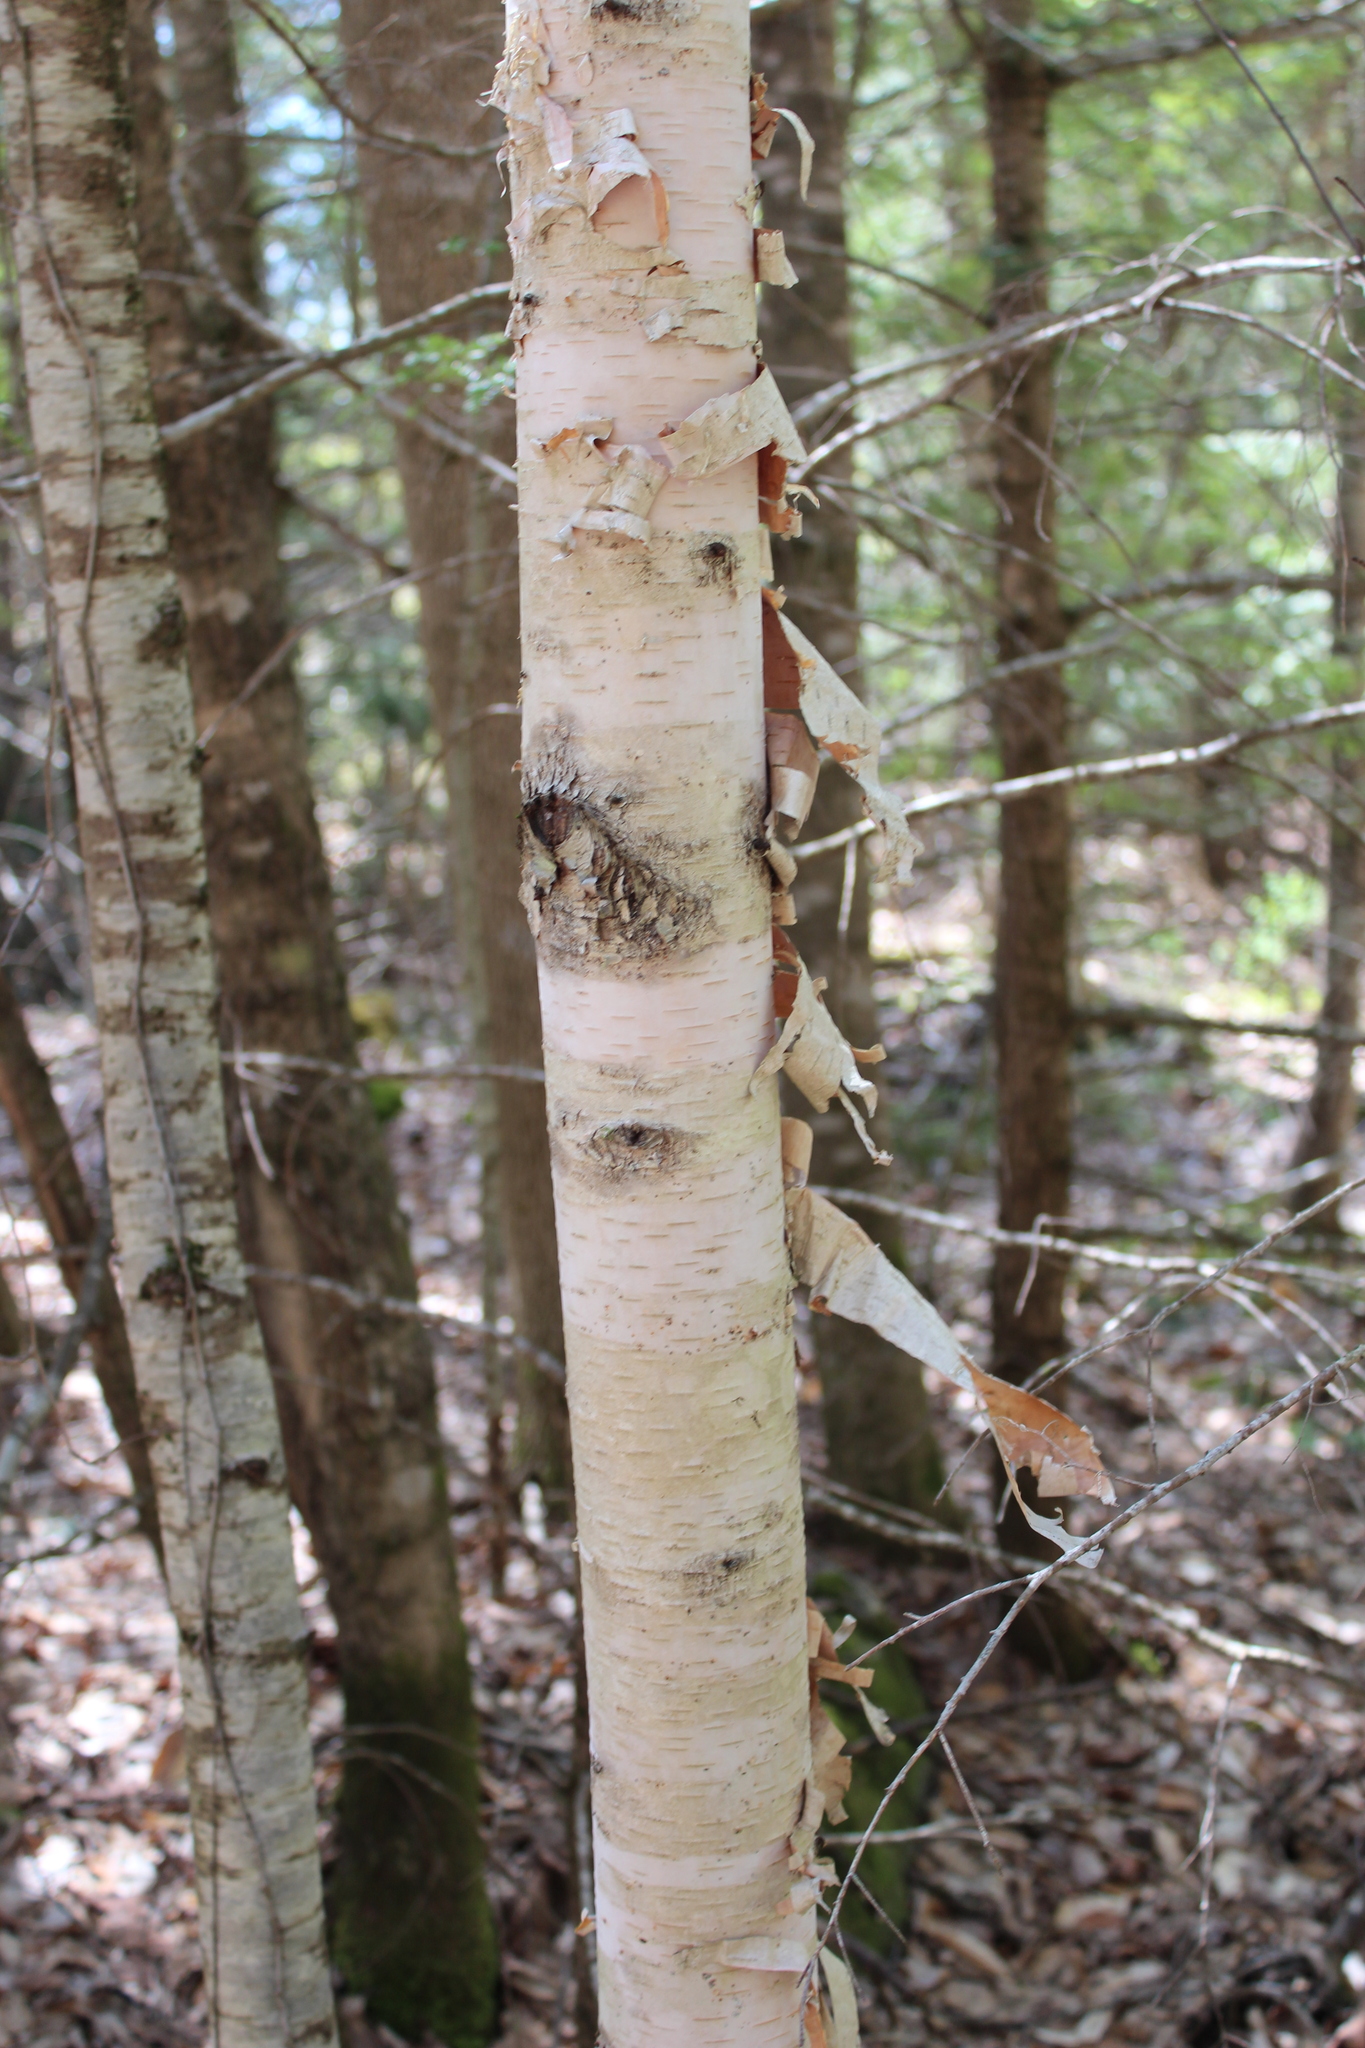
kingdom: Plantae
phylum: Tracheophyta
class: Magnoliopsida
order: Fagales
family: Betulaceae
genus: Betula
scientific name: Betula papyrifera
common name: Paper birch
